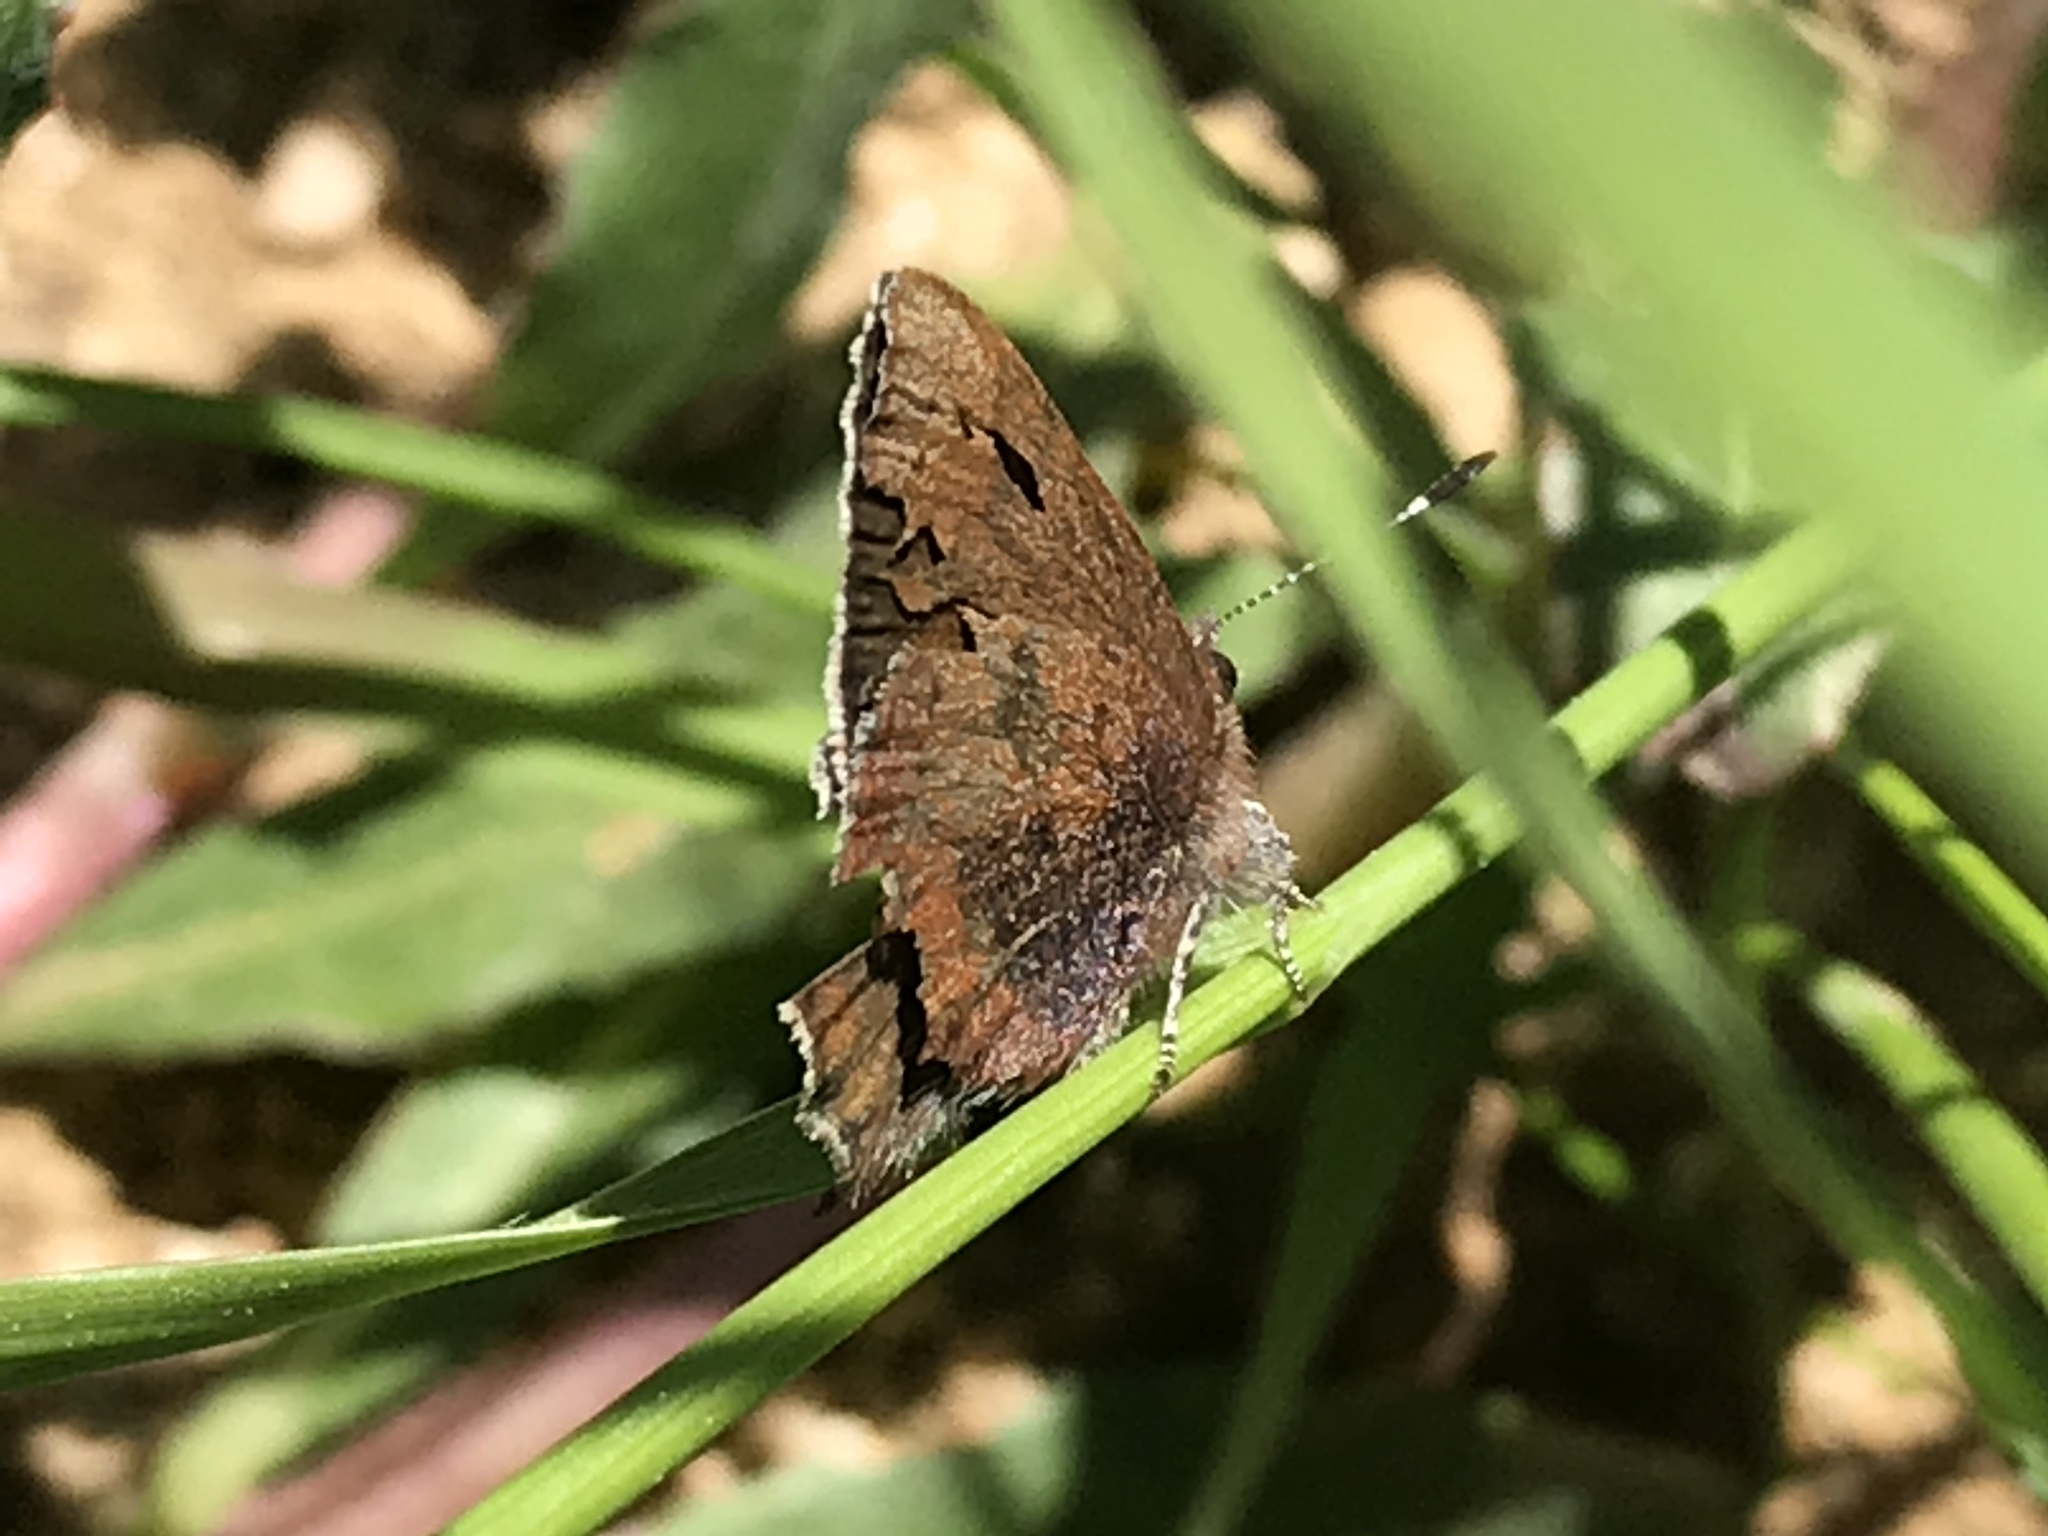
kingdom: Animalia
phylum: Arthropoda
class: Insecta
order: Lepidoptera
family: Lycaenidae
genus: Incisalia
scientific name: Incisalia irioides
